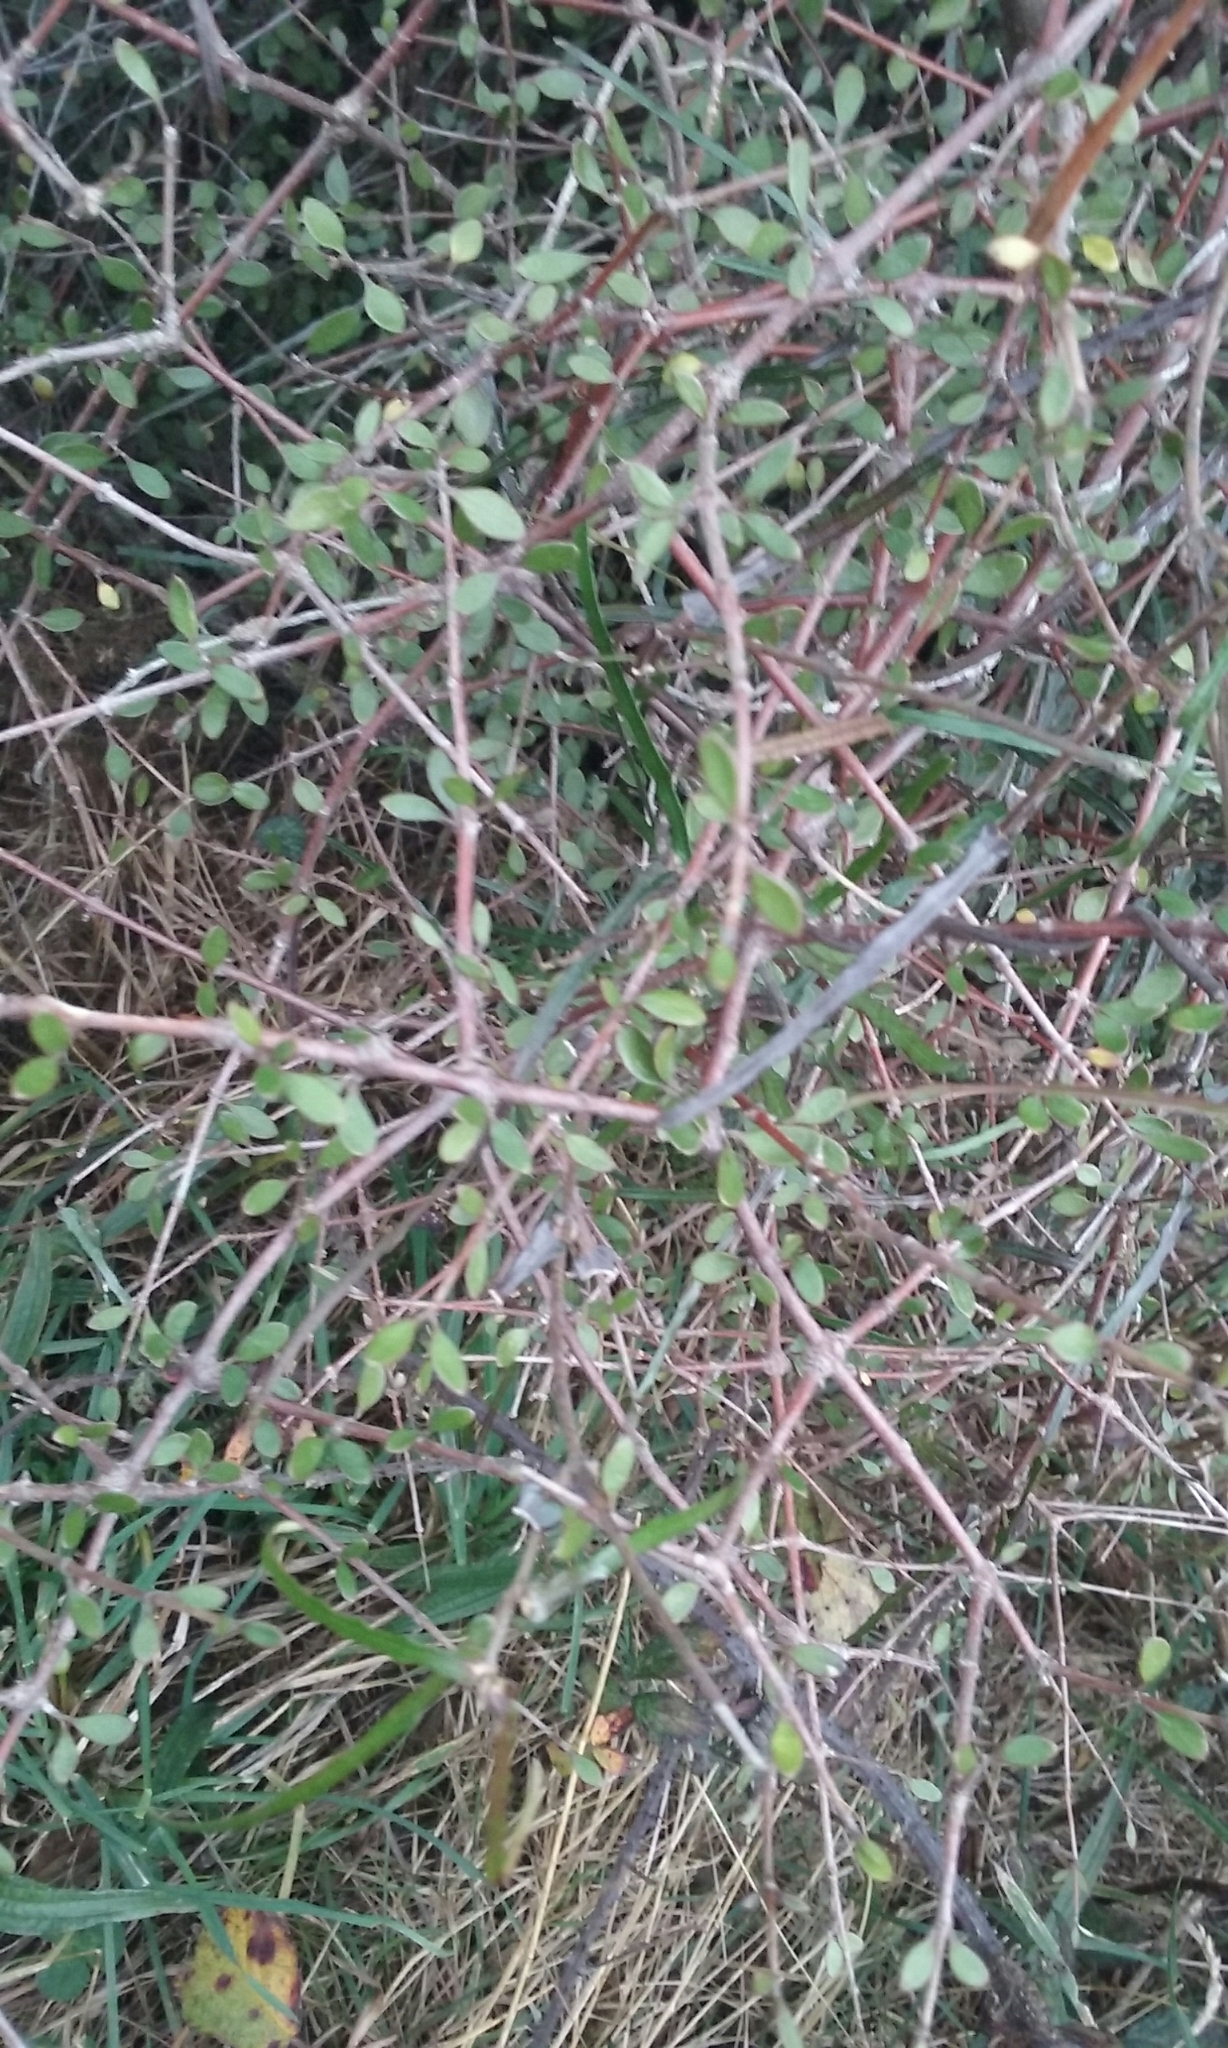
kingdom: Plantae
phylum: Tracheophyta
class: Magnoliopsida
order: Gentianales
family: Rubiaceae
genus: Coprosma
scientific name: Coprosma rigida
